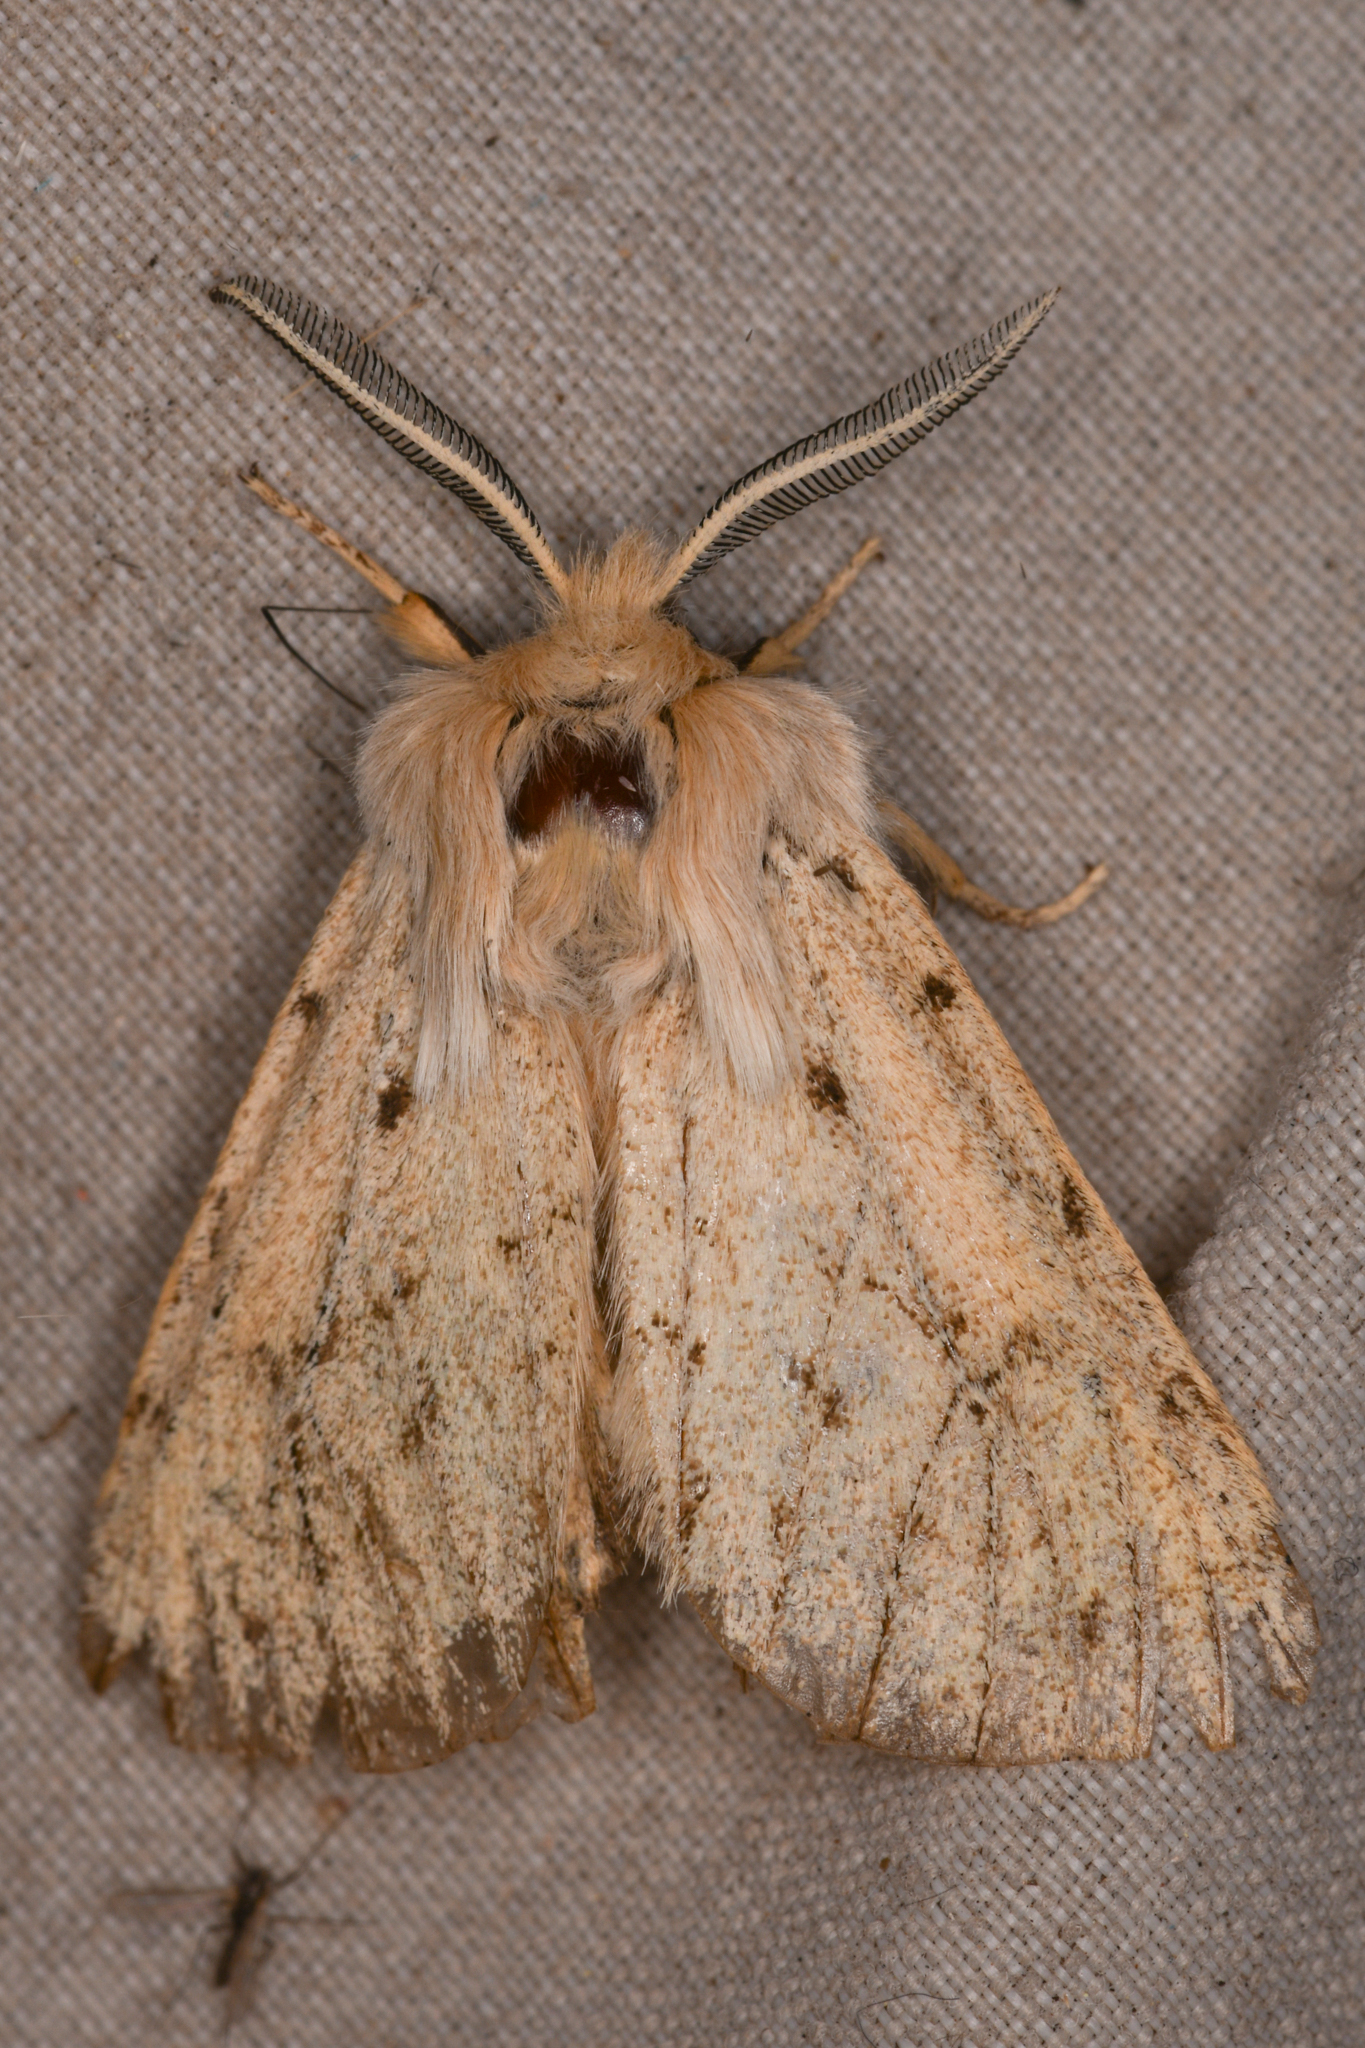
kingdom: Animalia
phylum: Arthropoda
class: Insecta
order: Lepidoptera
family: Erebidae
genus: Spilosoma
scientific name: Spilosoma vagans
